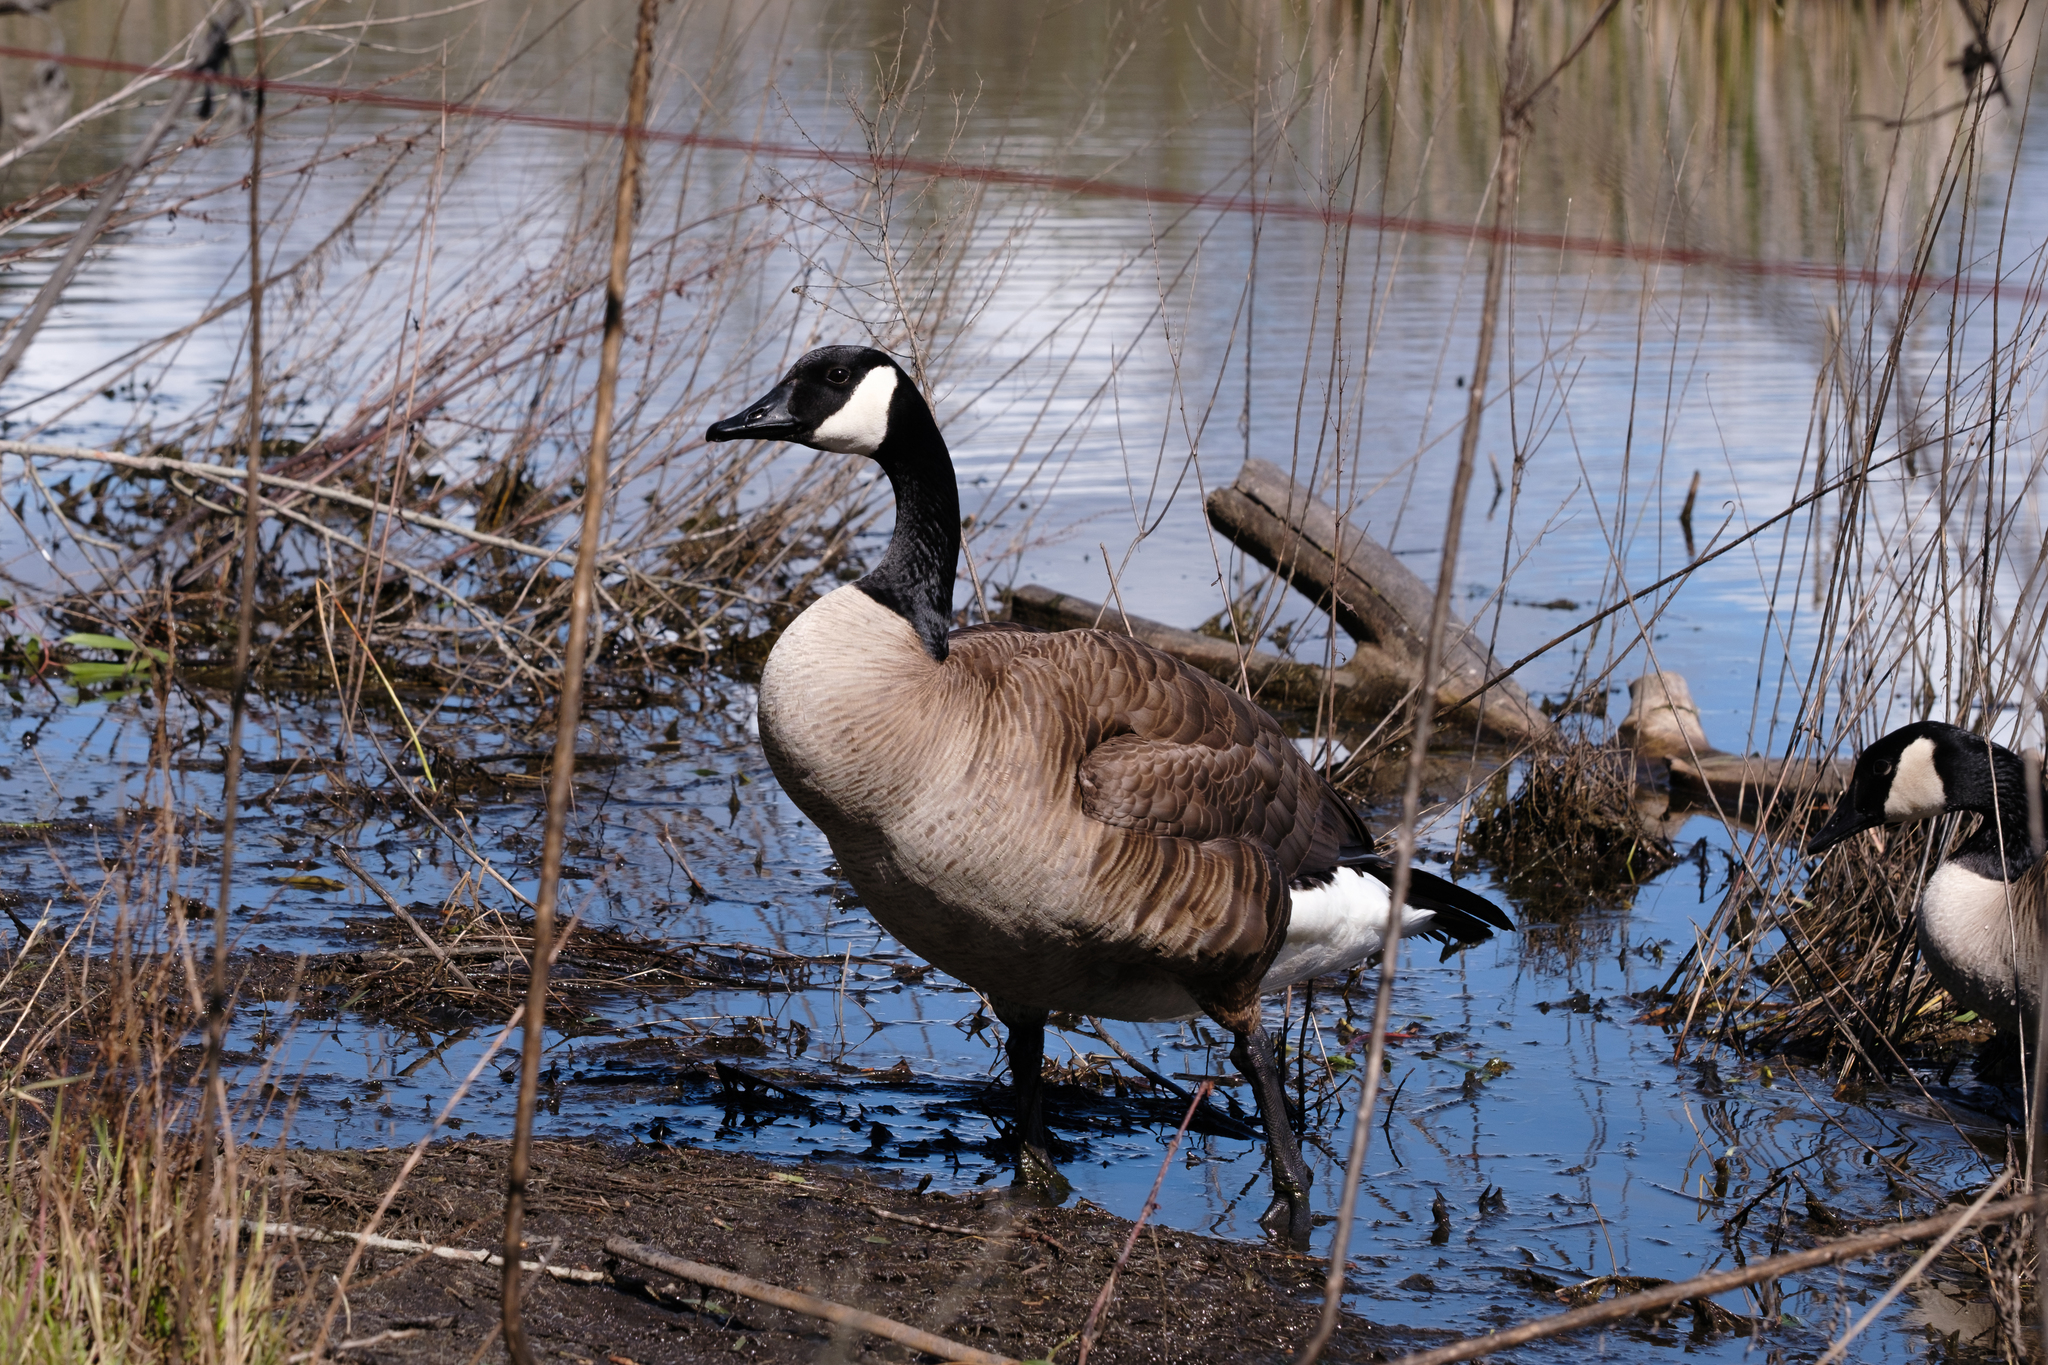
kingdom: Animalia
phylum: Chordata
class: Aves
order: Anseriformes
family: Anatidae
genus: Branta
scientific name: Branta canadensis
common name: Canada goose
